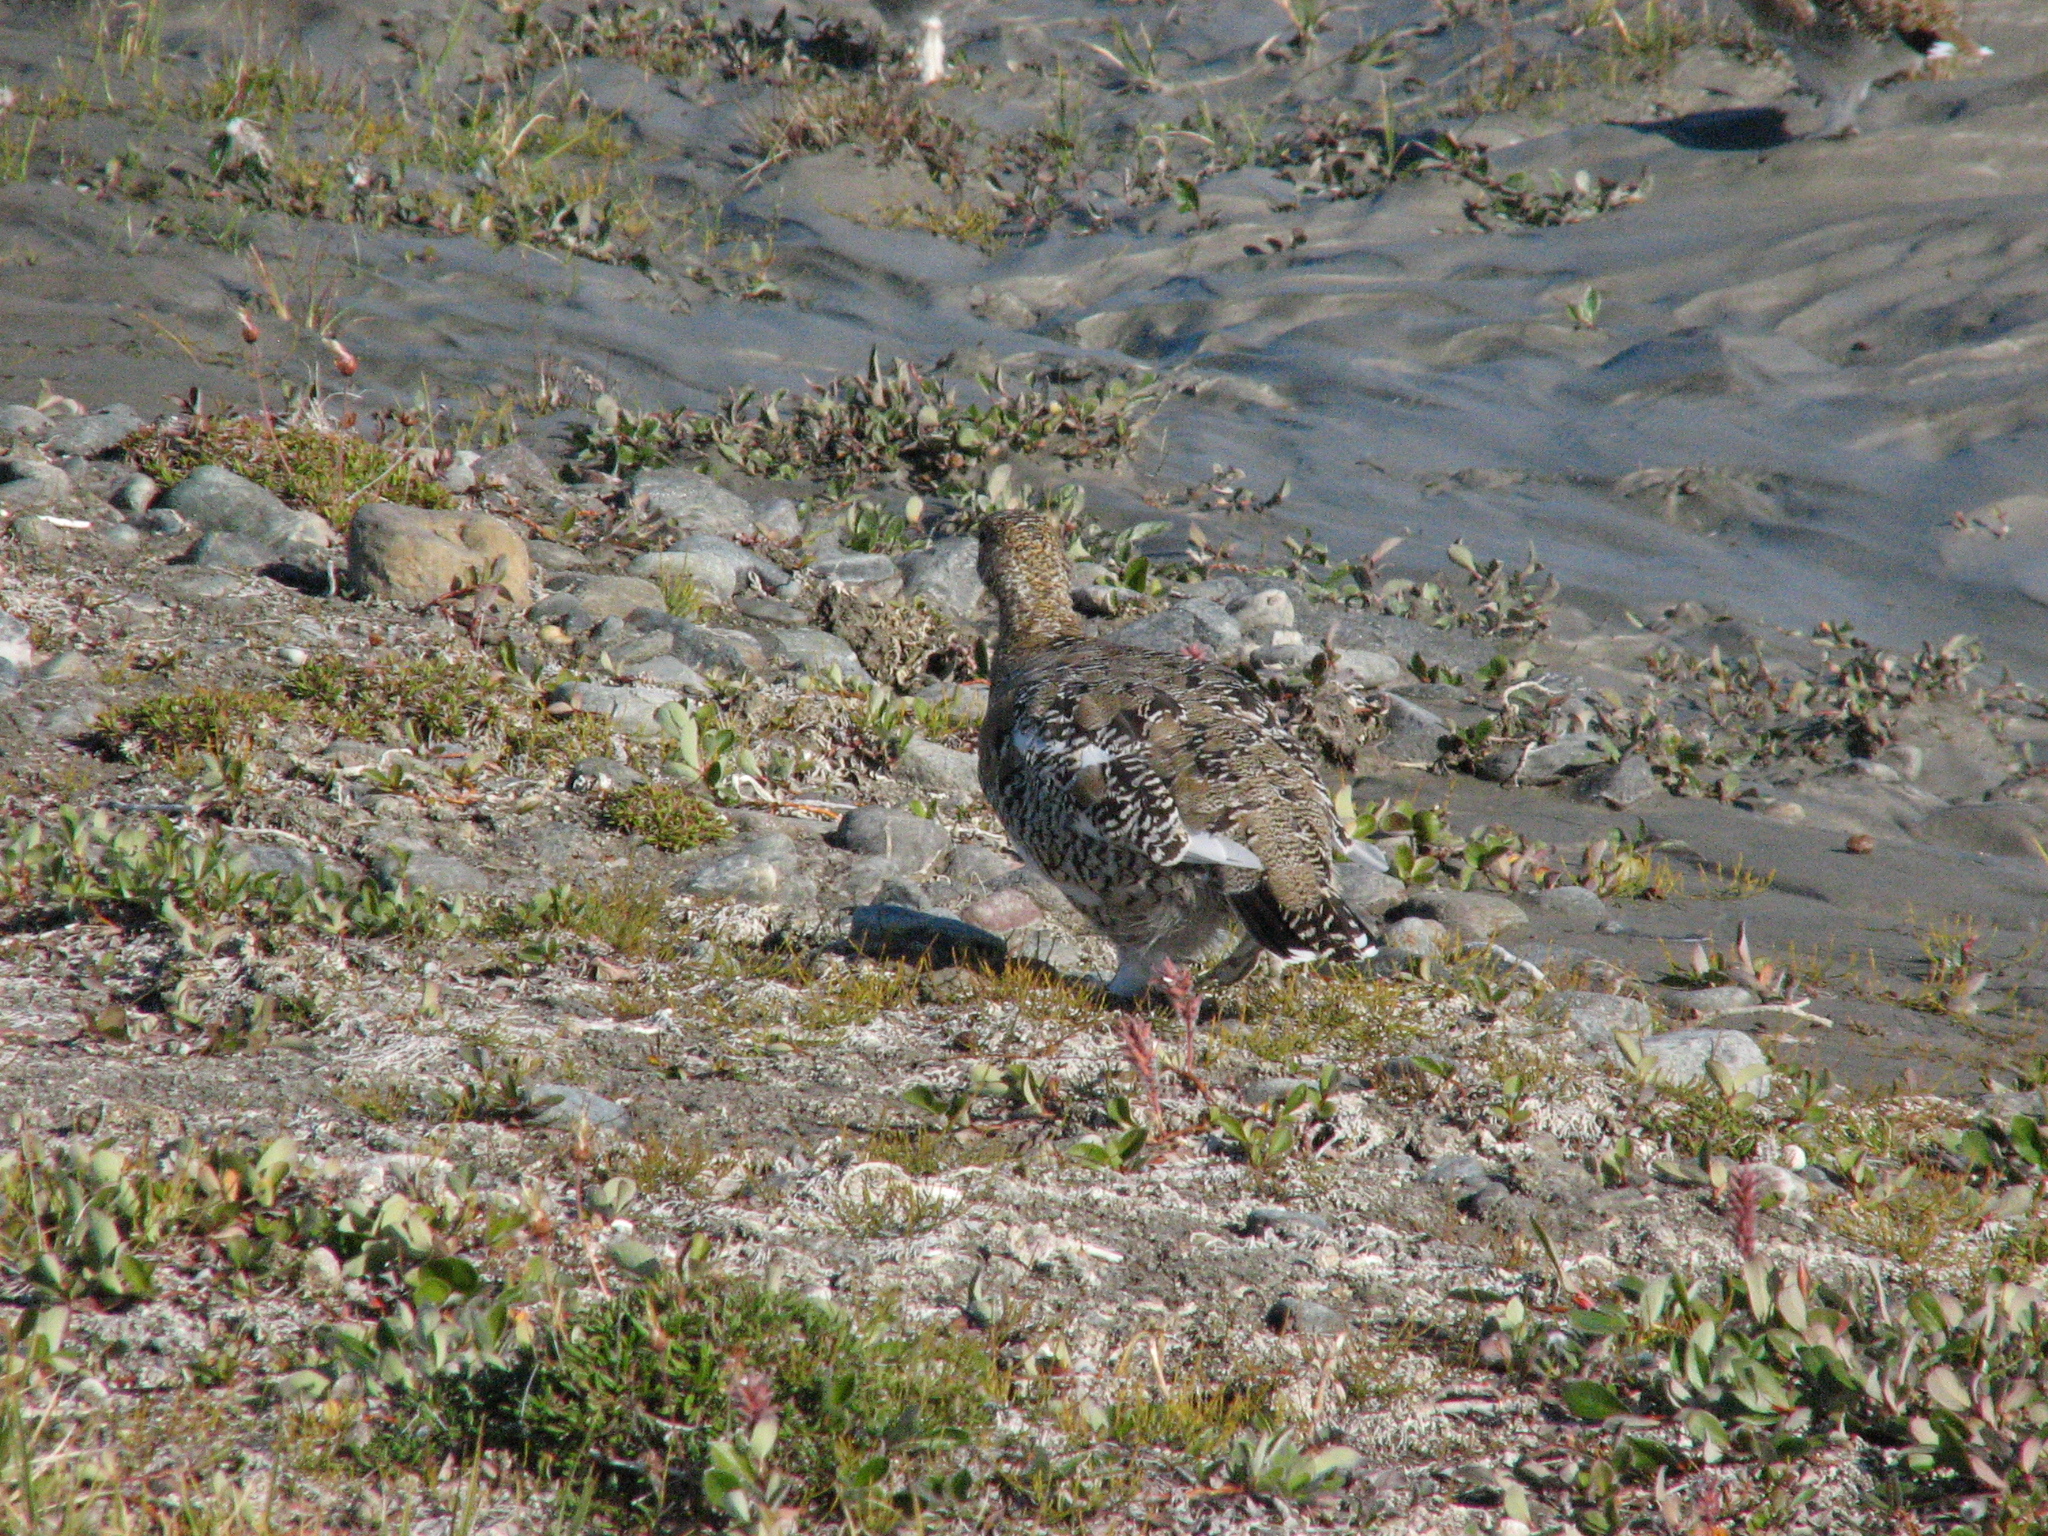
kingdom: Animalia
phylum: Chordata
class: Aves
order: Galliformes
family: Phasianidae
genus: Lagopus
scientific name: Lagopus muta
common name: Rock ptarmigan
